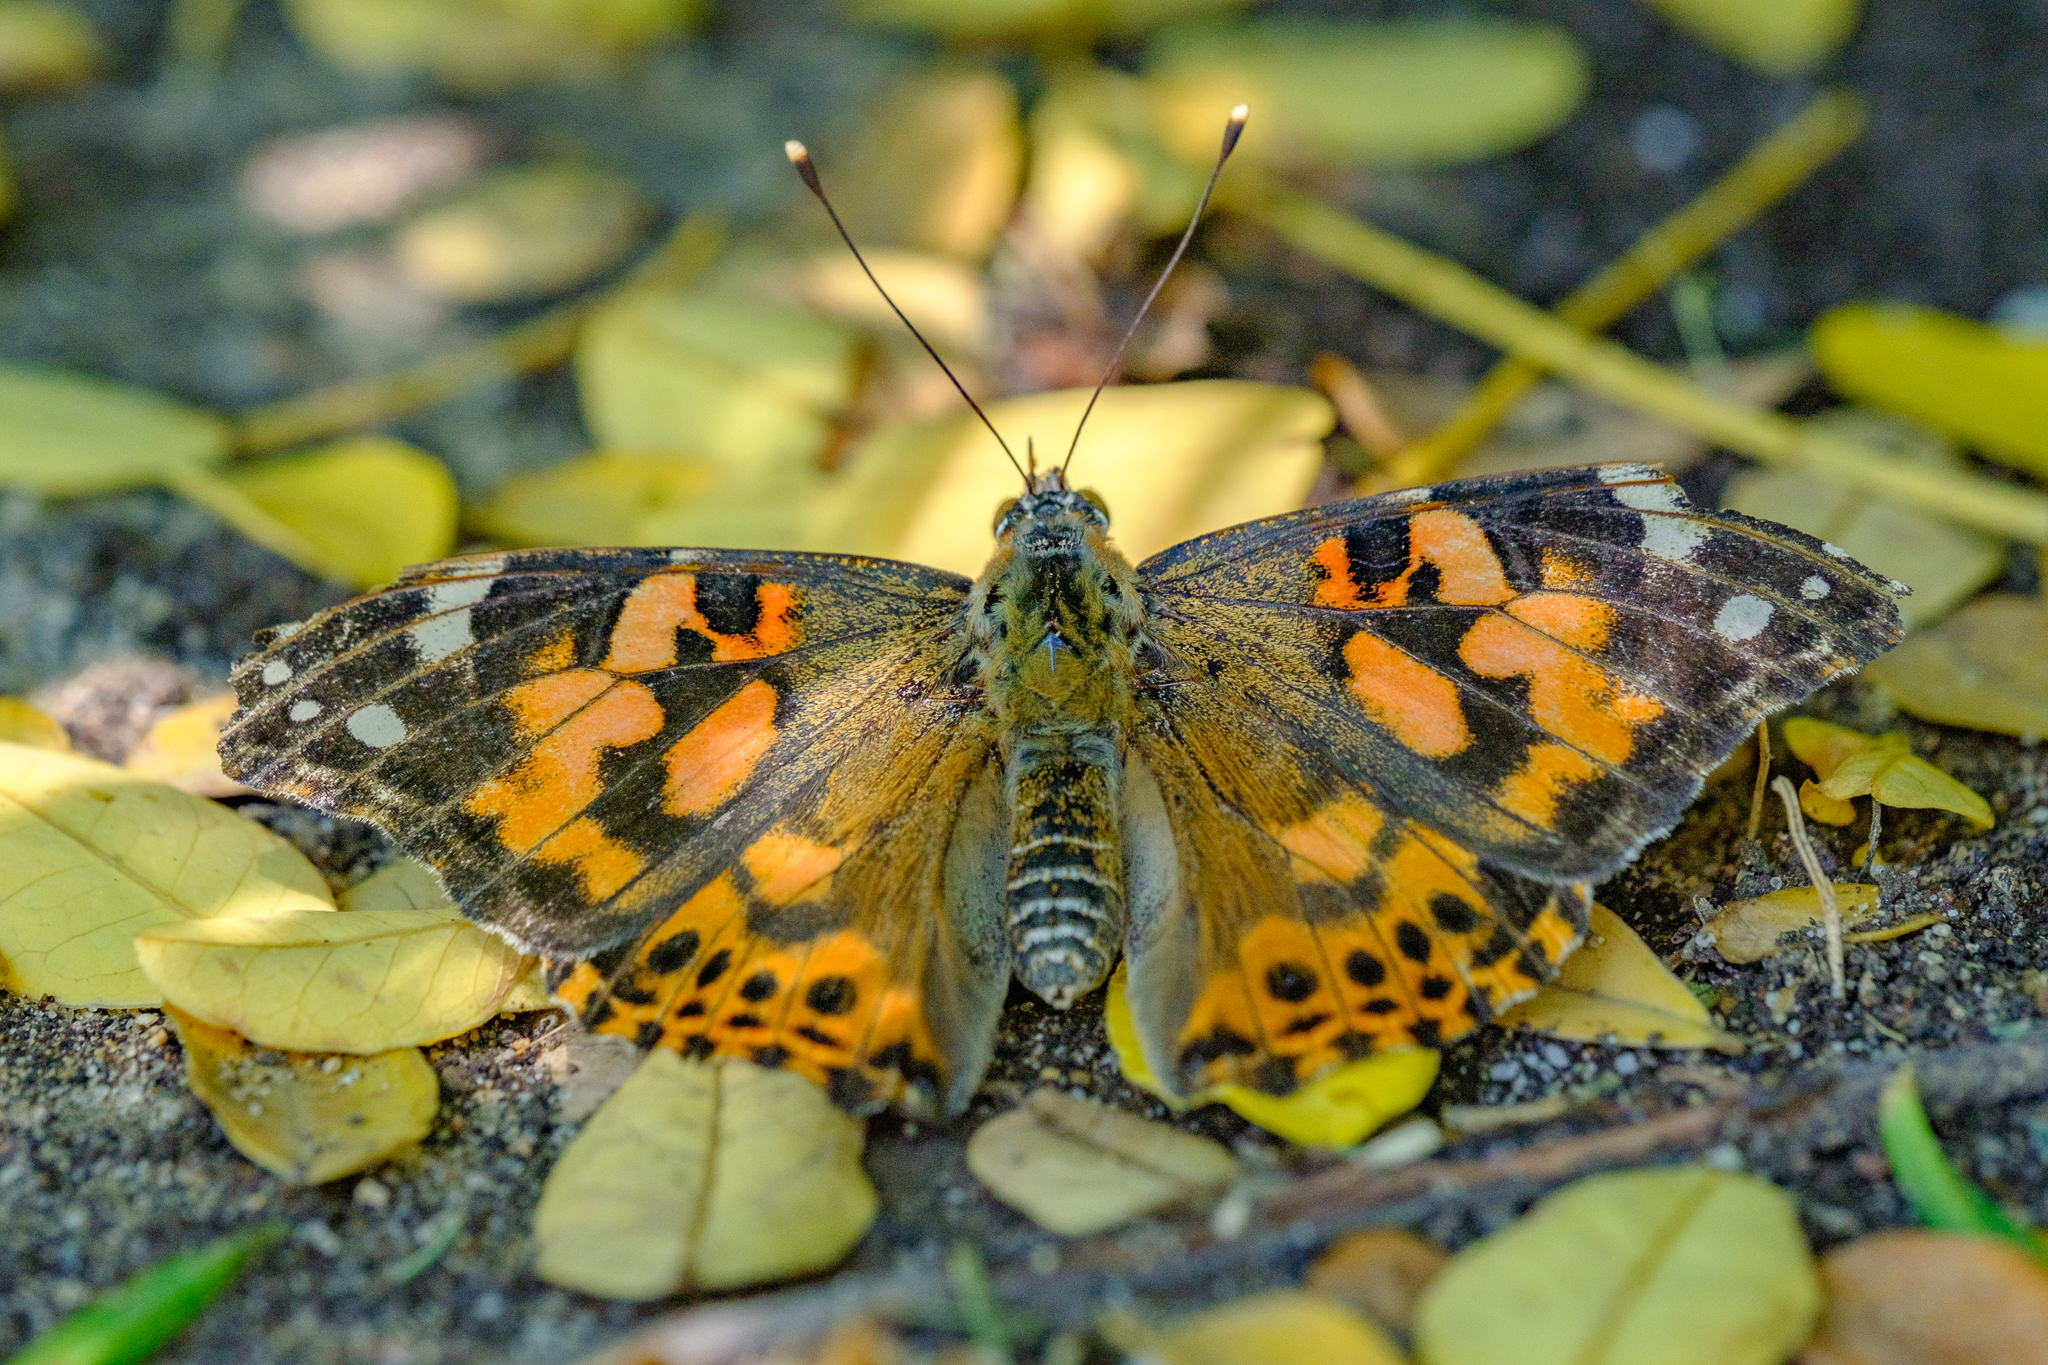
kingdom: Animalia
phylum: Arthropoda
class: Insecta
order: Lepidoptera
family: Nymphalidae
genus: Vanessa
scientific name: Vanessa cardui
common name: Painted lady
